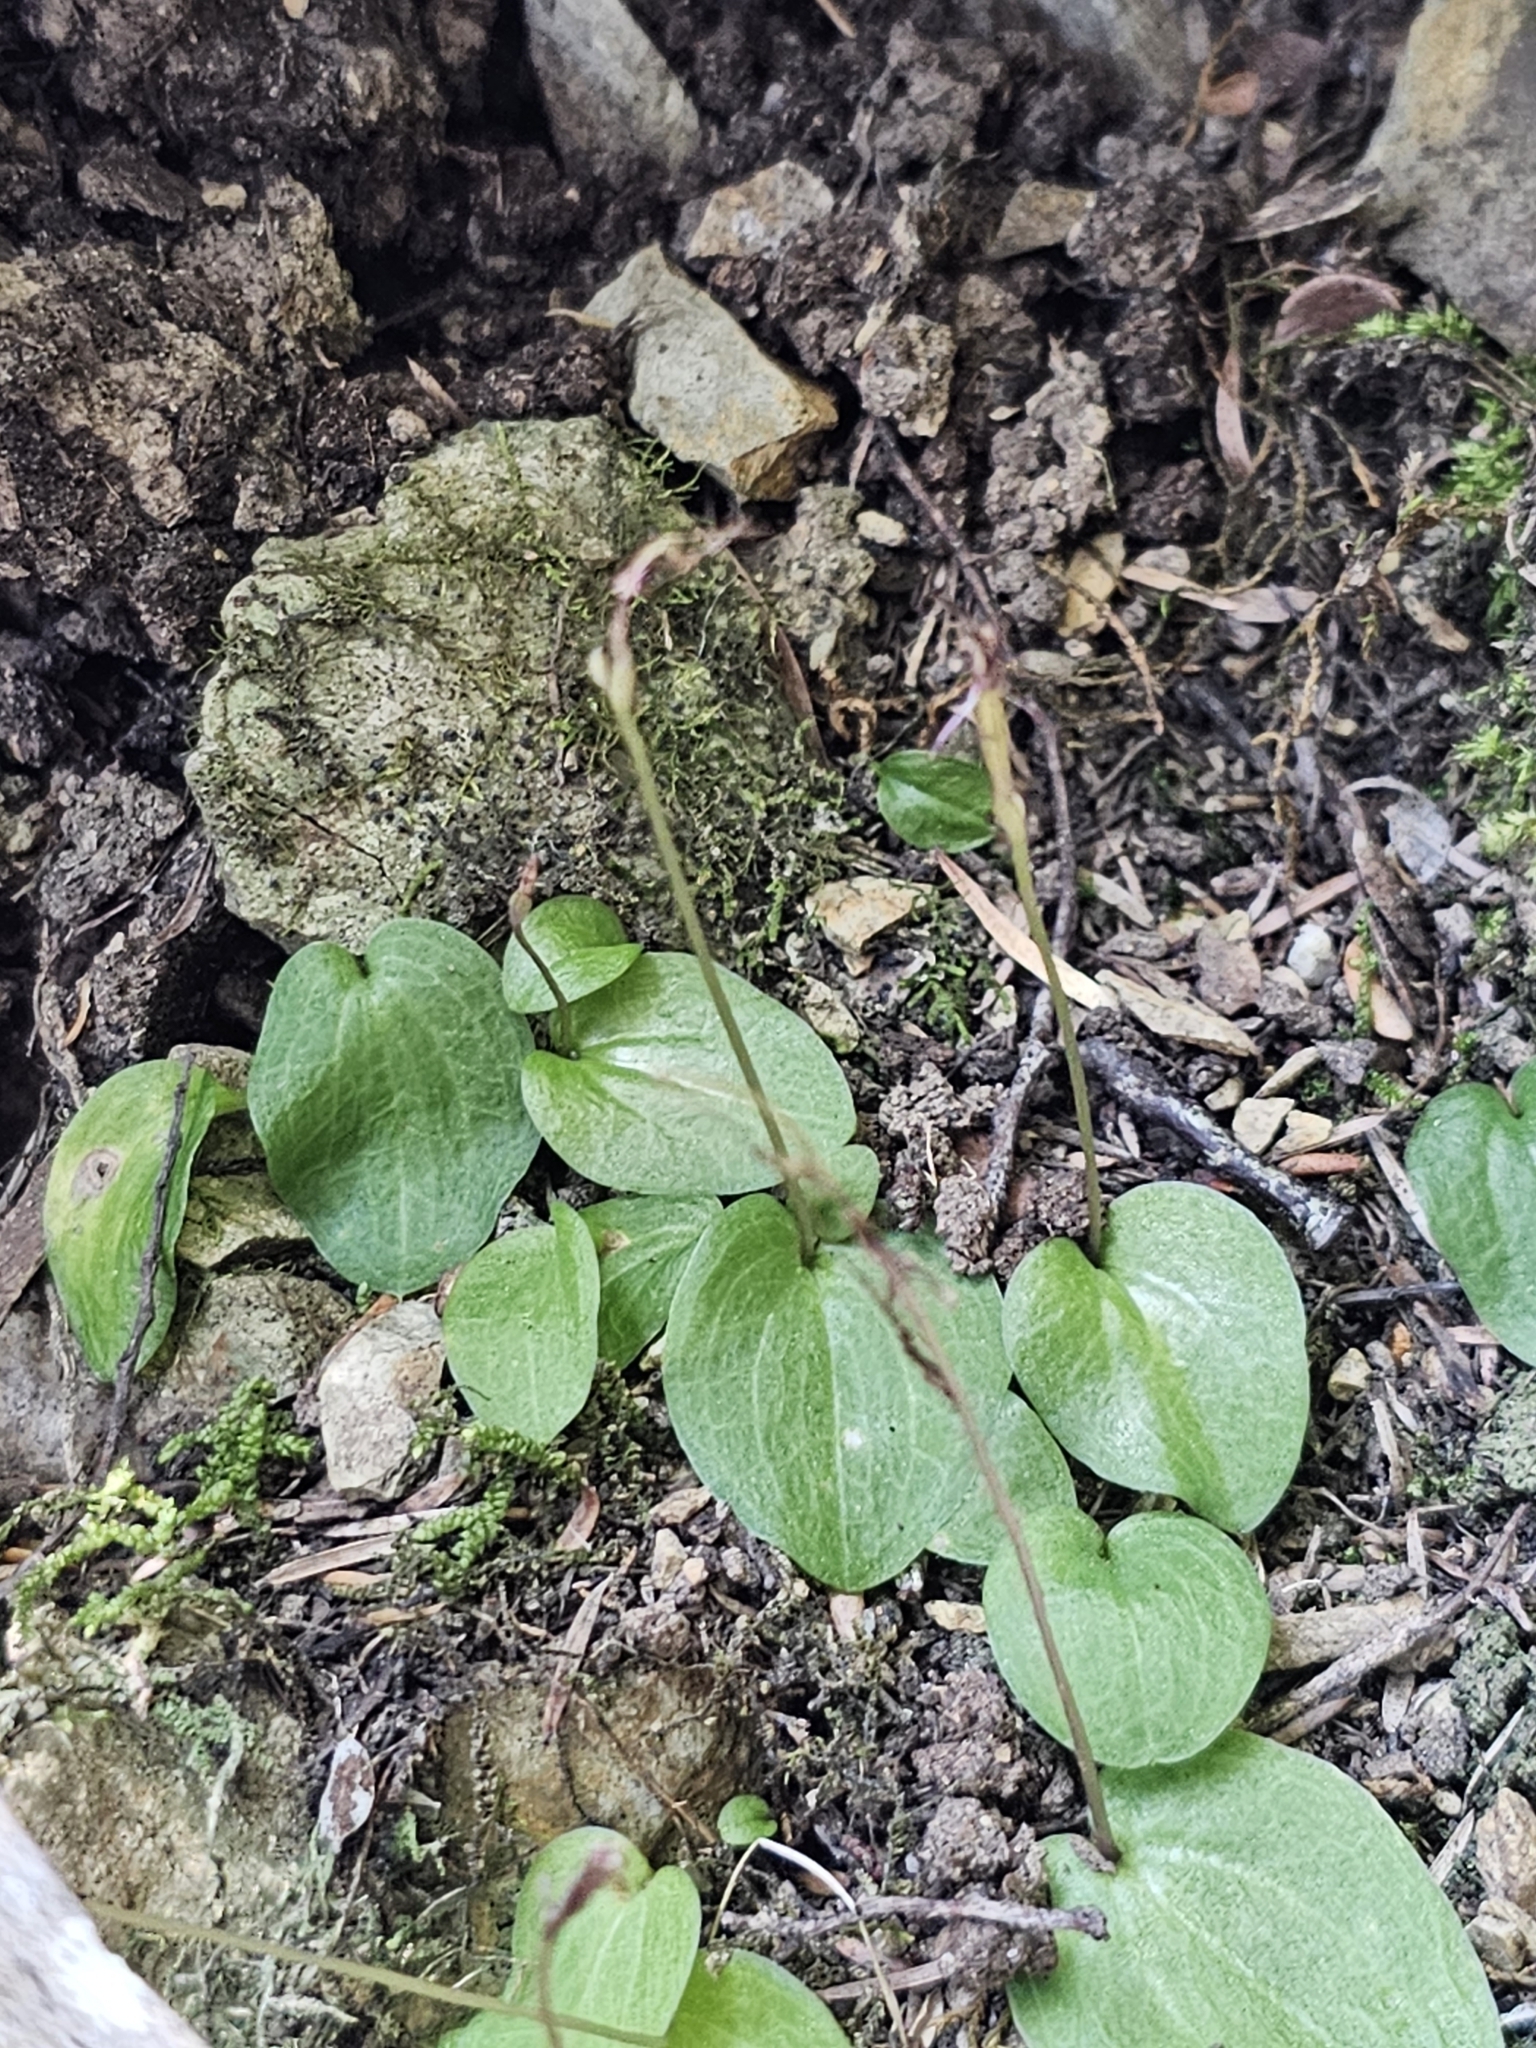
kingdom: Plantae
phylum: Tracheophyta
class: Liliopsida
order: Asparagales
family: Orchidaceae
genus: Cyrtostylis
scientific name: Cyrtostylis rotundifolia
